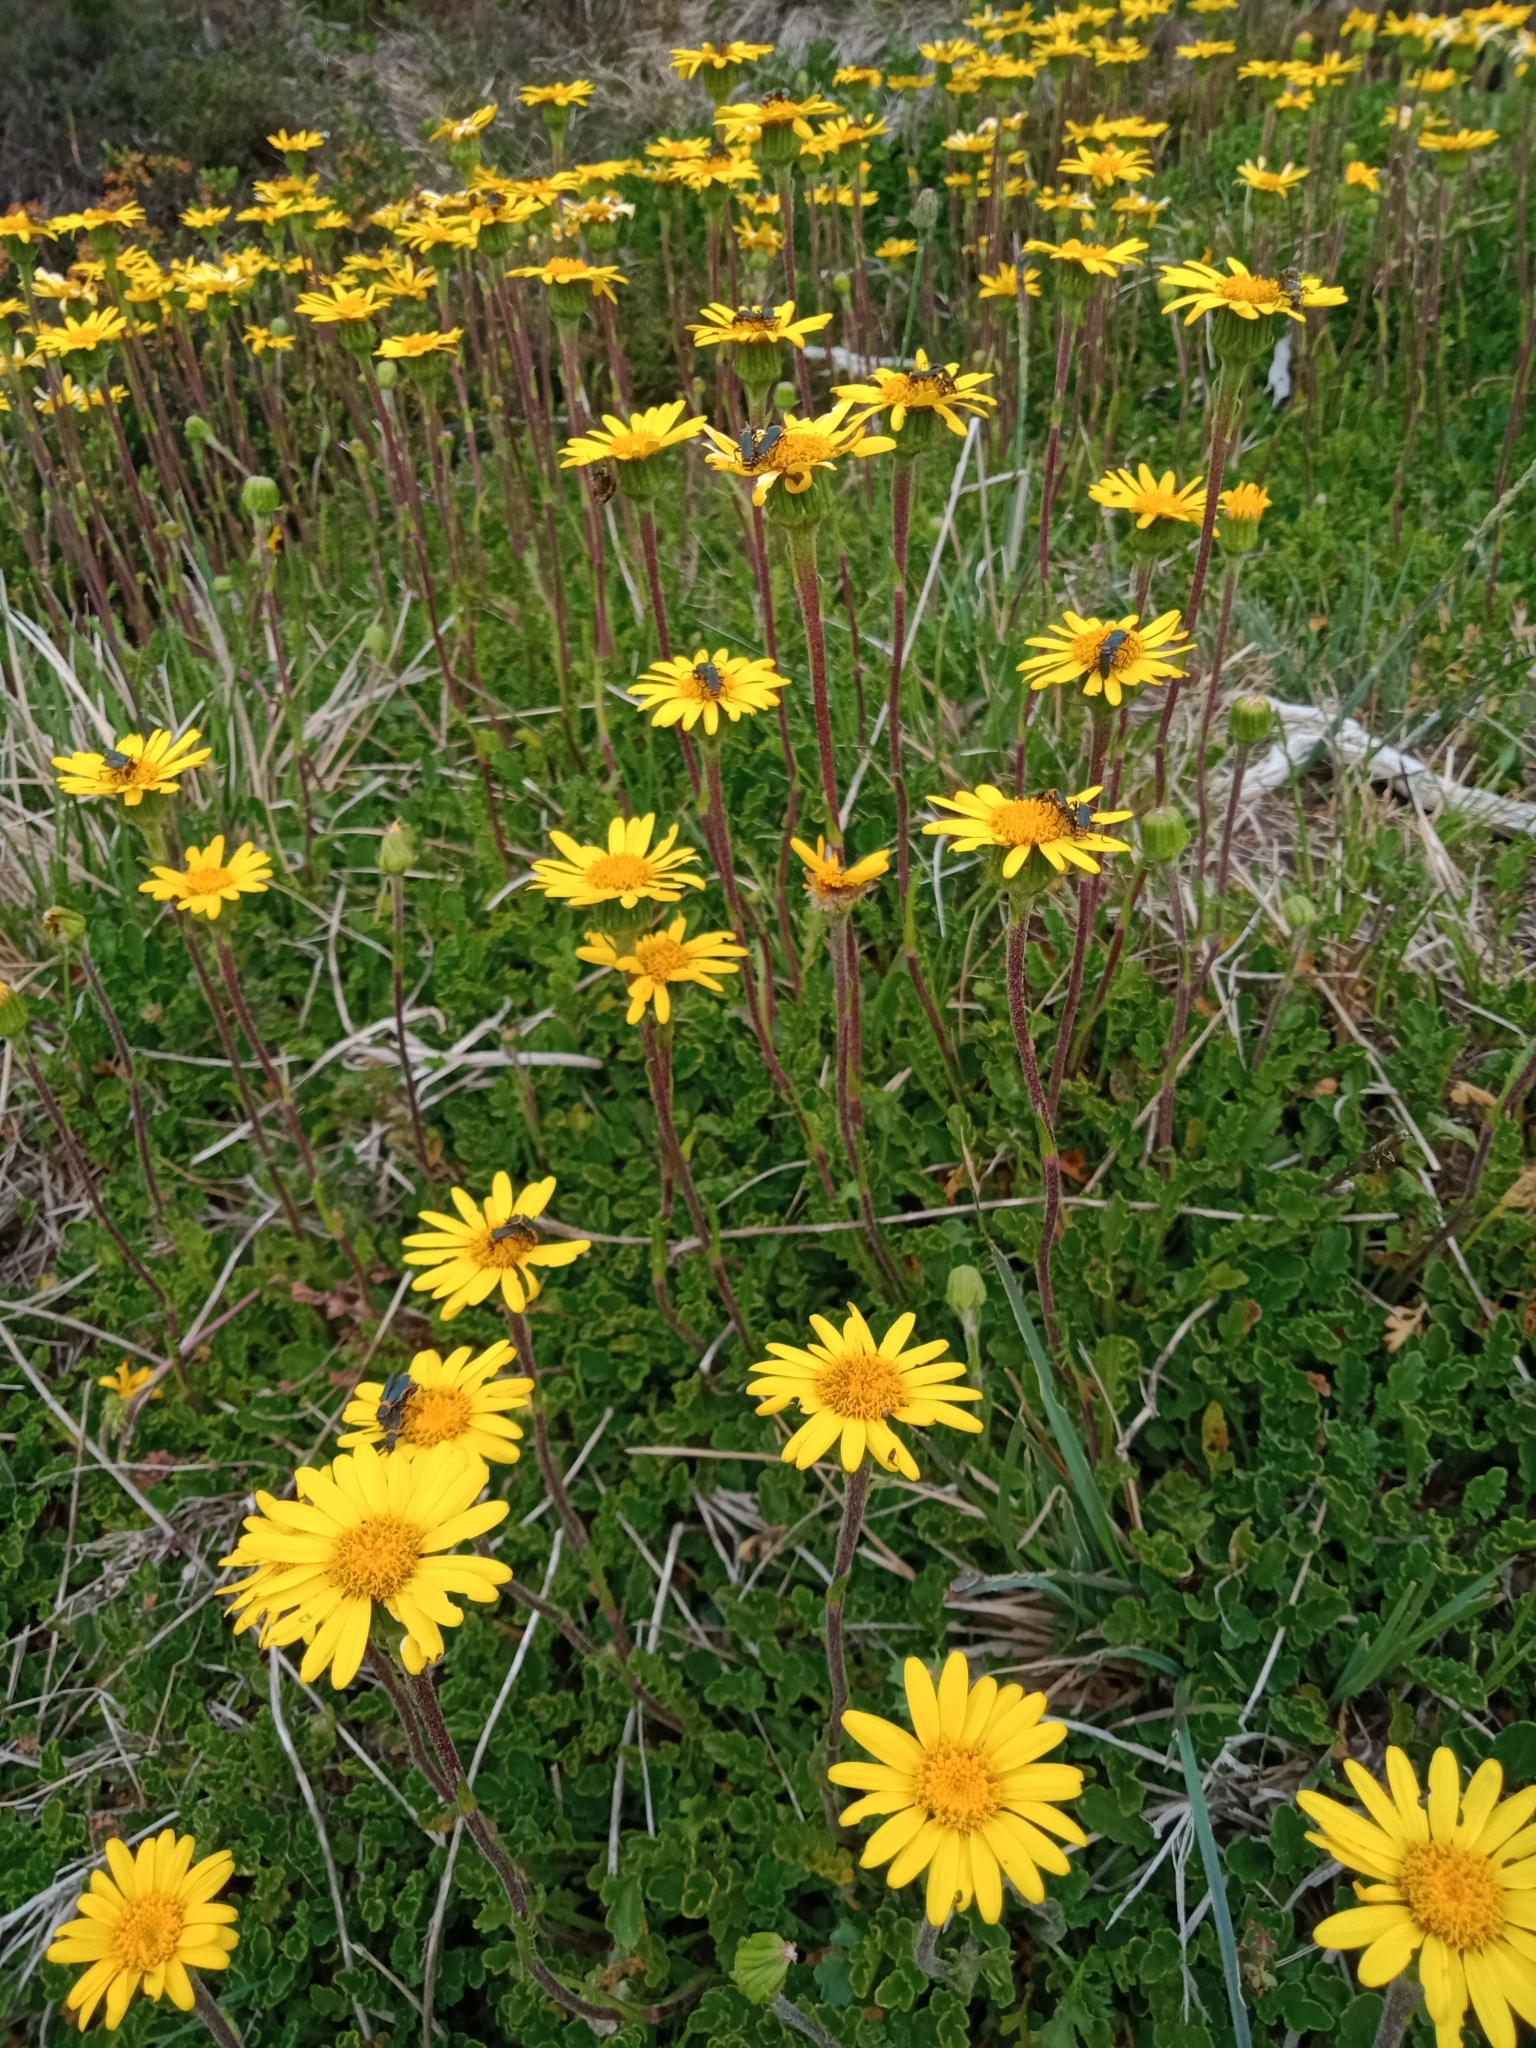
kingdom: Plantae
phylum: Tracheophyta
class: Magnoliopsida
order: Asterales
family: Asteraceae
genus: Scapisenecio
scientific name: Scapisenecio pectinatus
